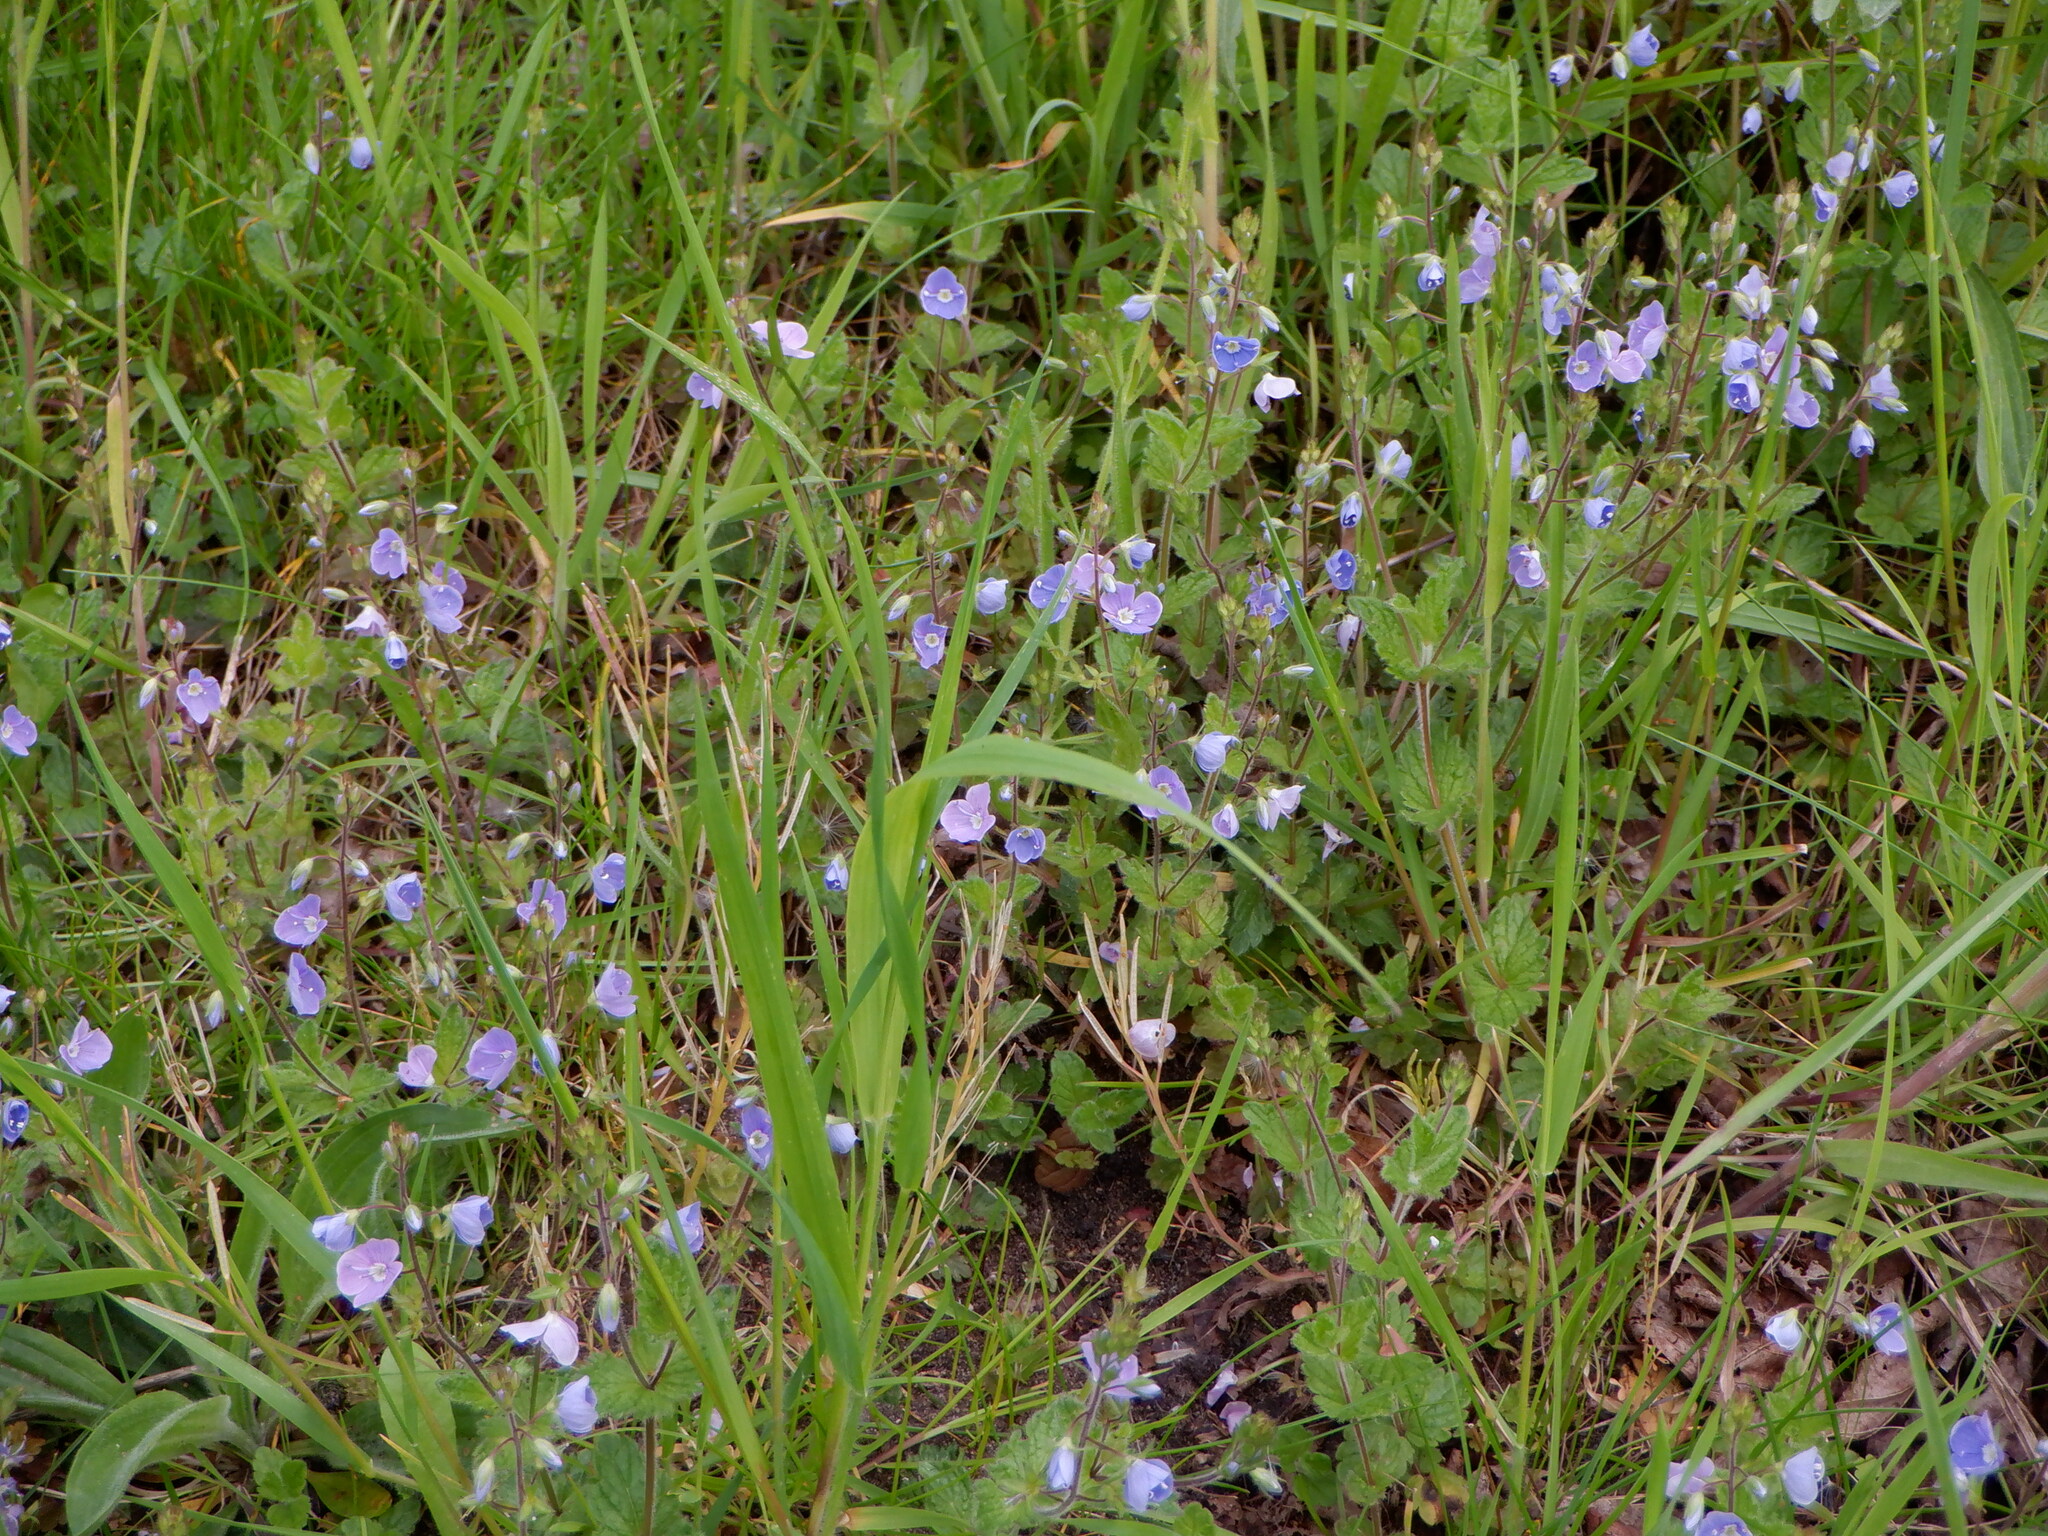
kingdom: Plantae
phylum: Tracheophyta
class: Magnoliopsida
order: Lamiales
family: Plantaginaceae
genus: Veronica
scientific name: Veronica chamaedrys
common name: Germander speedwell
